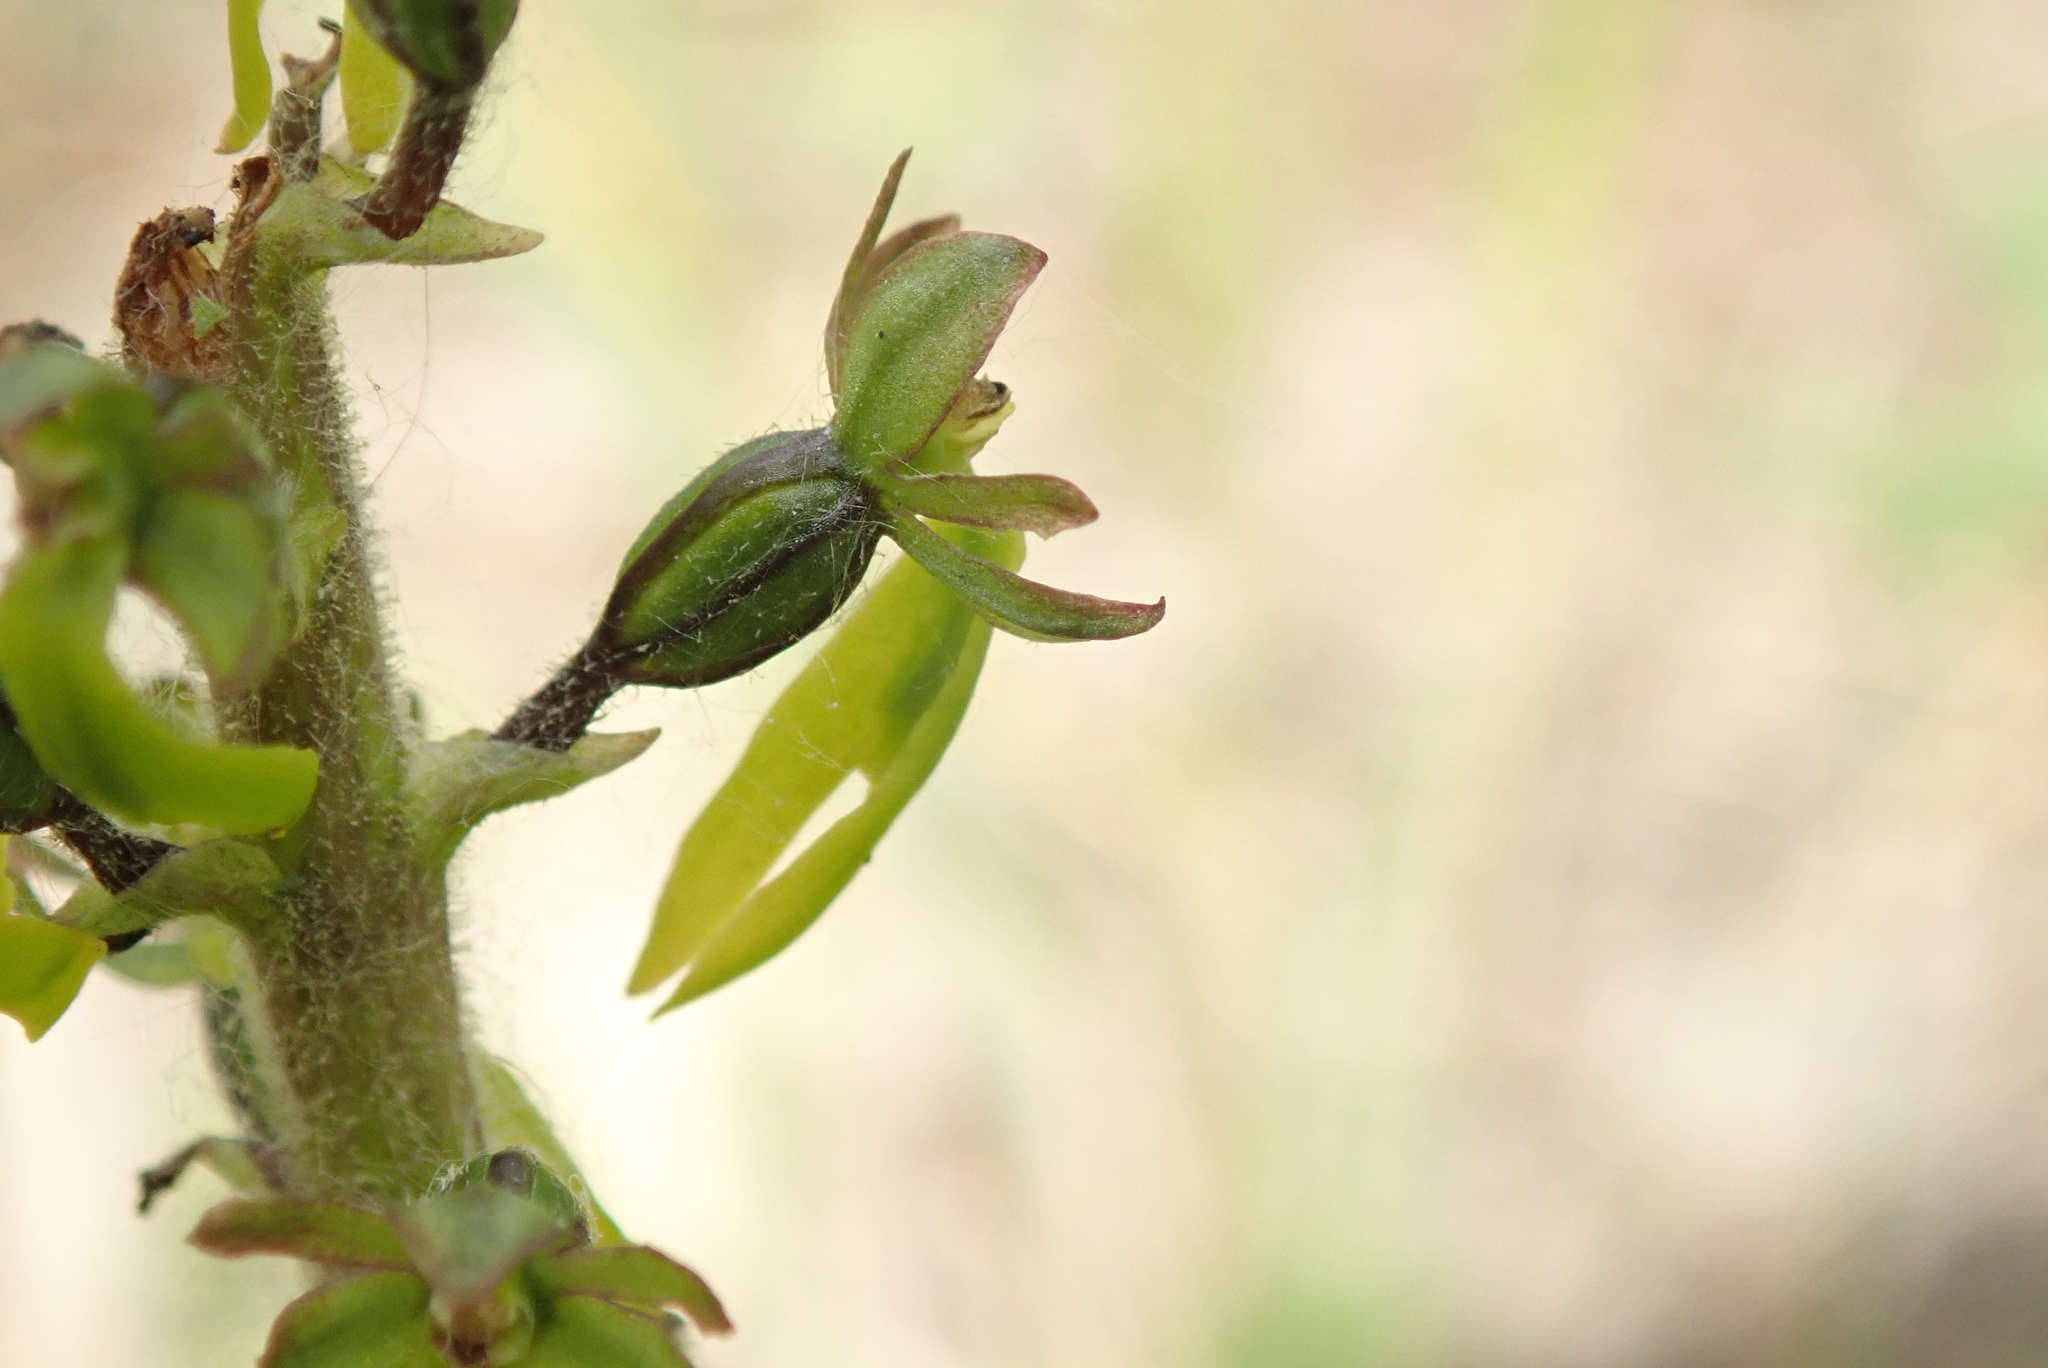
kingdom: Plantae
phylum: Tracheophyta
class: Liliopsida
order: Asparagales
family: Orchidaceae
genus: Neottia
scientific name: Neottia ovata
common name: Common twayblade
